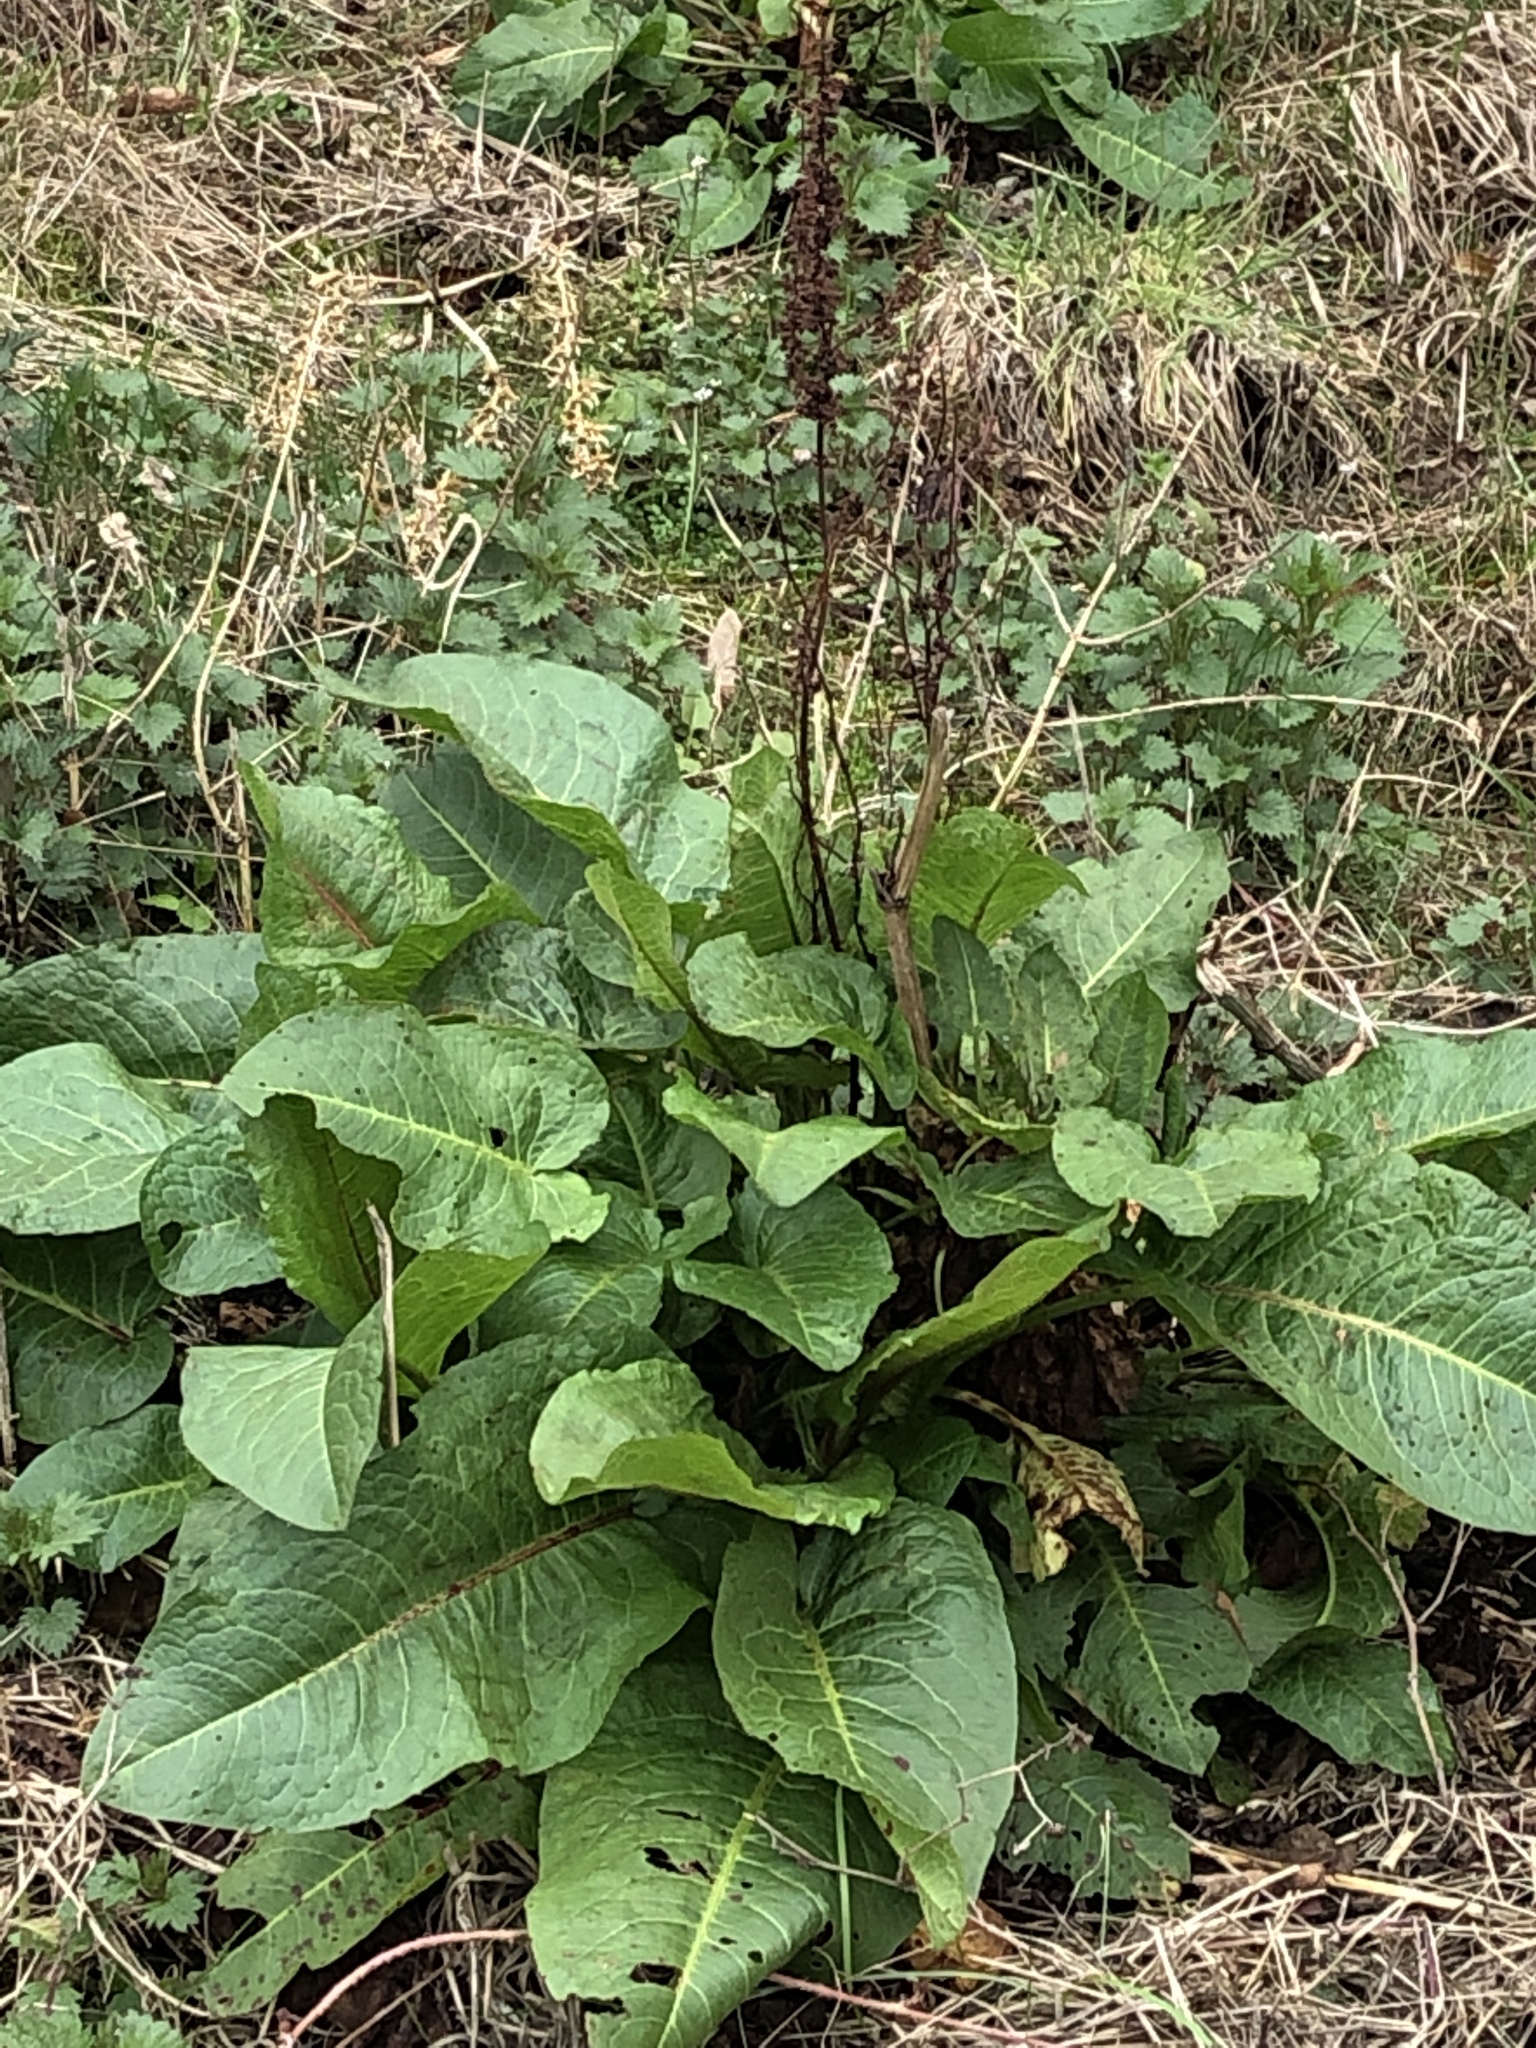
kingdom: Plantae
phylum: Tracheophyta
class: Magnoliopsida
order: Caryophyllales
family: Polygonaceae
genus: Rumex
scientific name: Rumex obtusifolius
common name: Bitter dock
